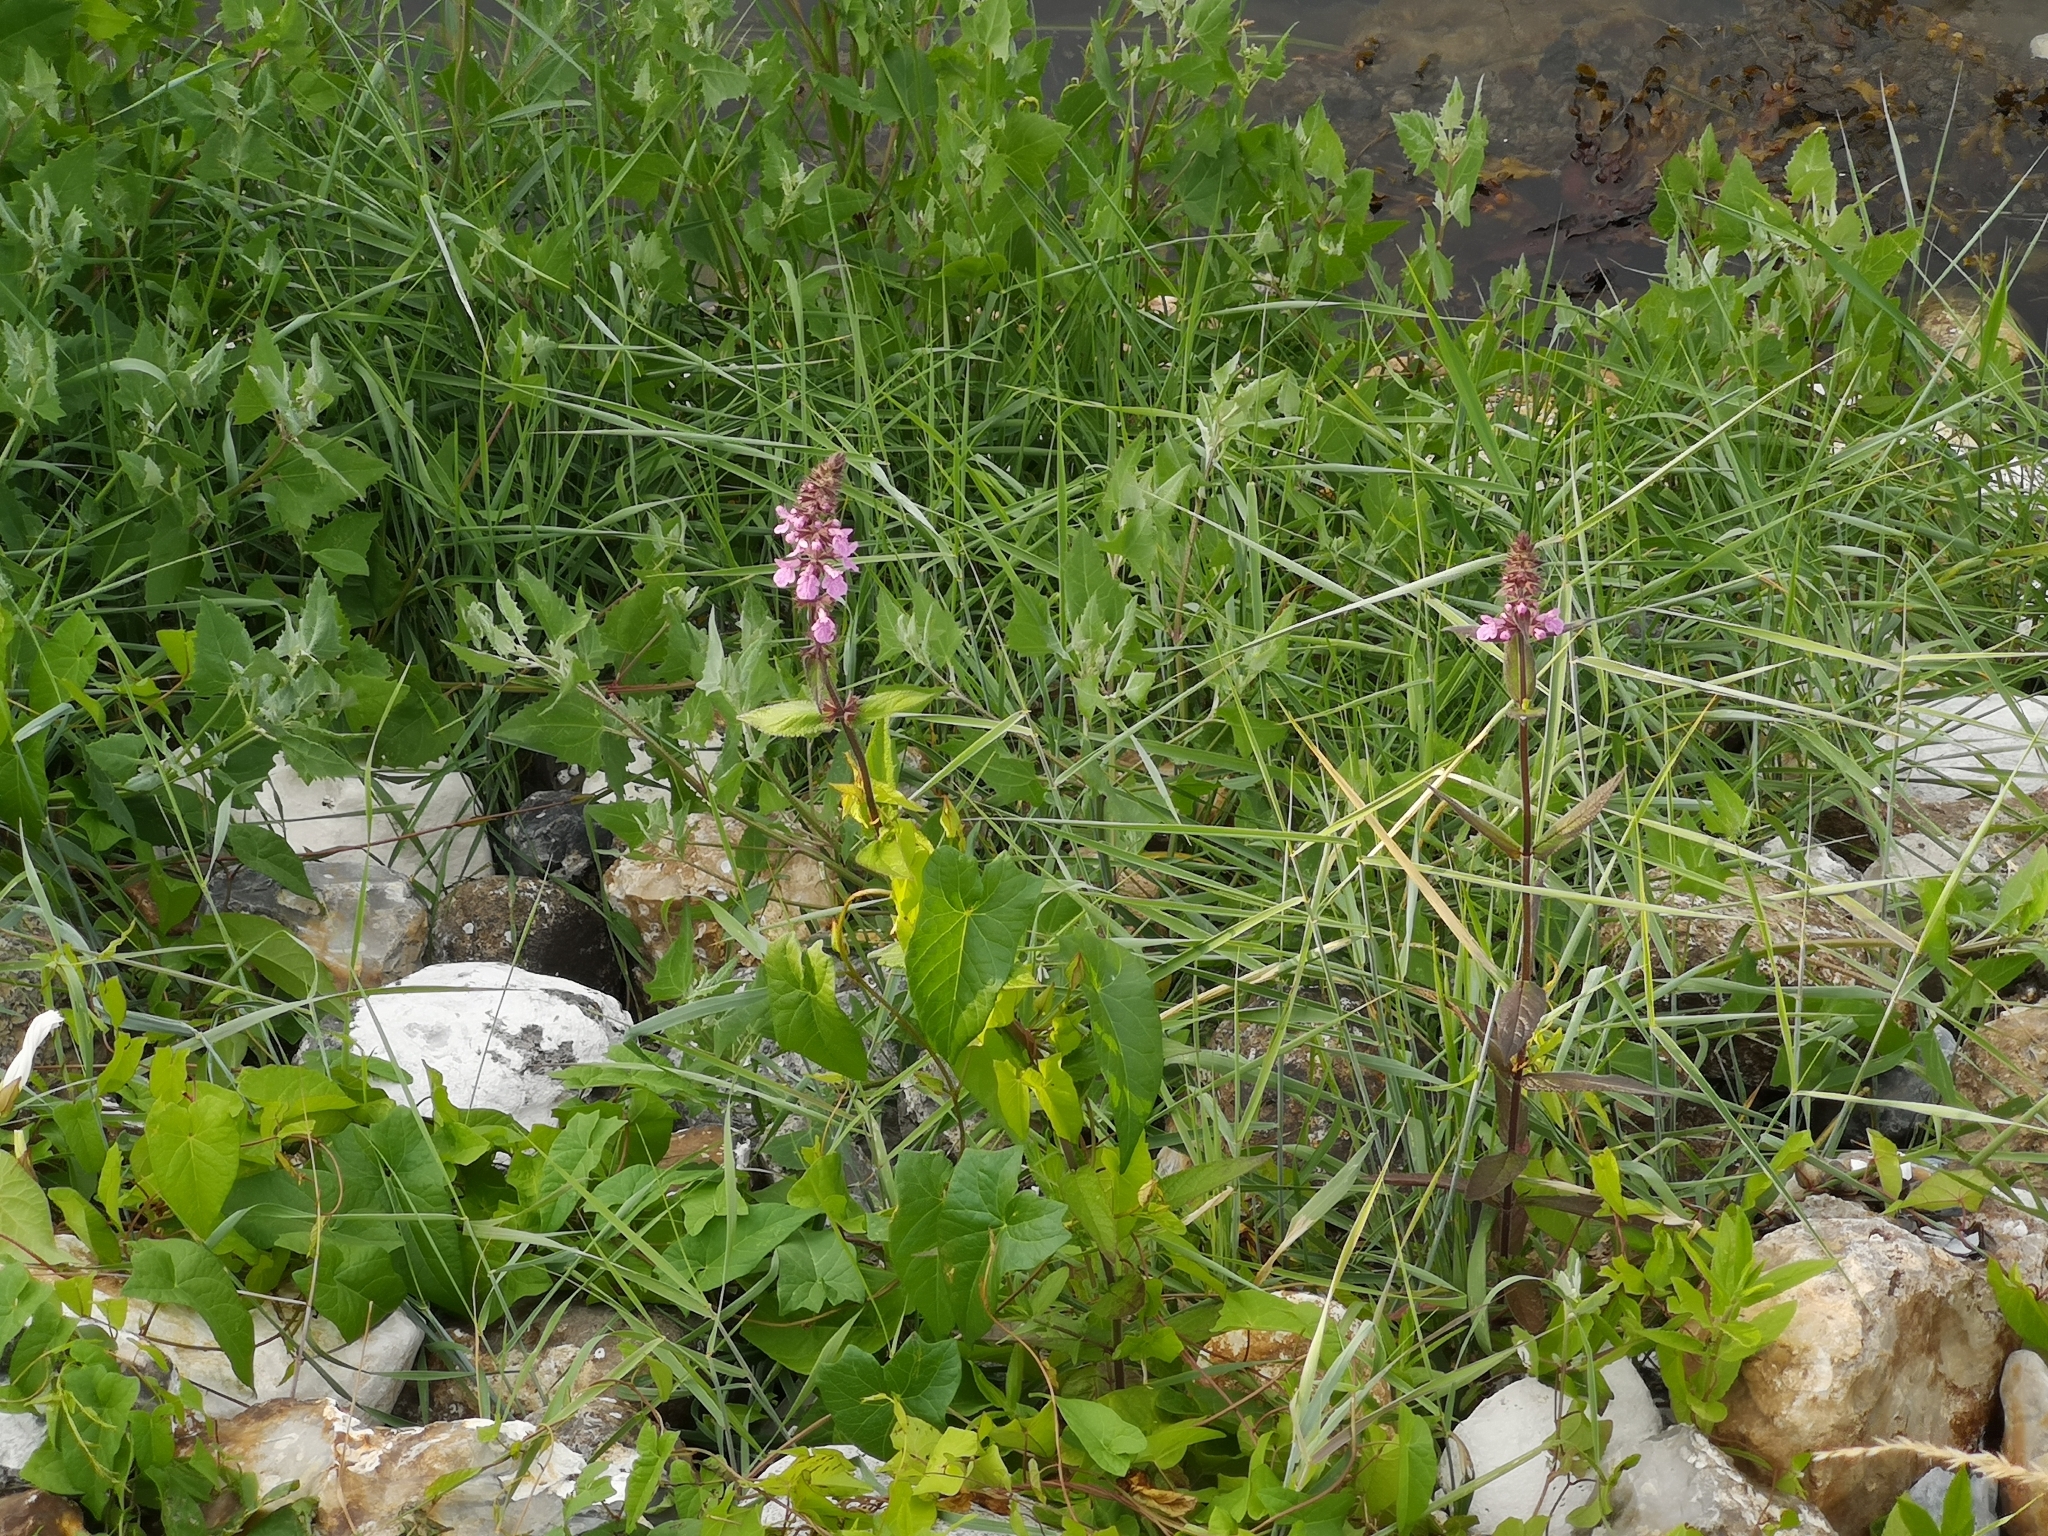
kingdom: Plantae
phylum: Tracheophyta
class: Magnoliopsida
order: Lamiales
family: Lamiaceae
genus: Stachys
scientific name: Stachys palustris
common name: Marsh woundwort
